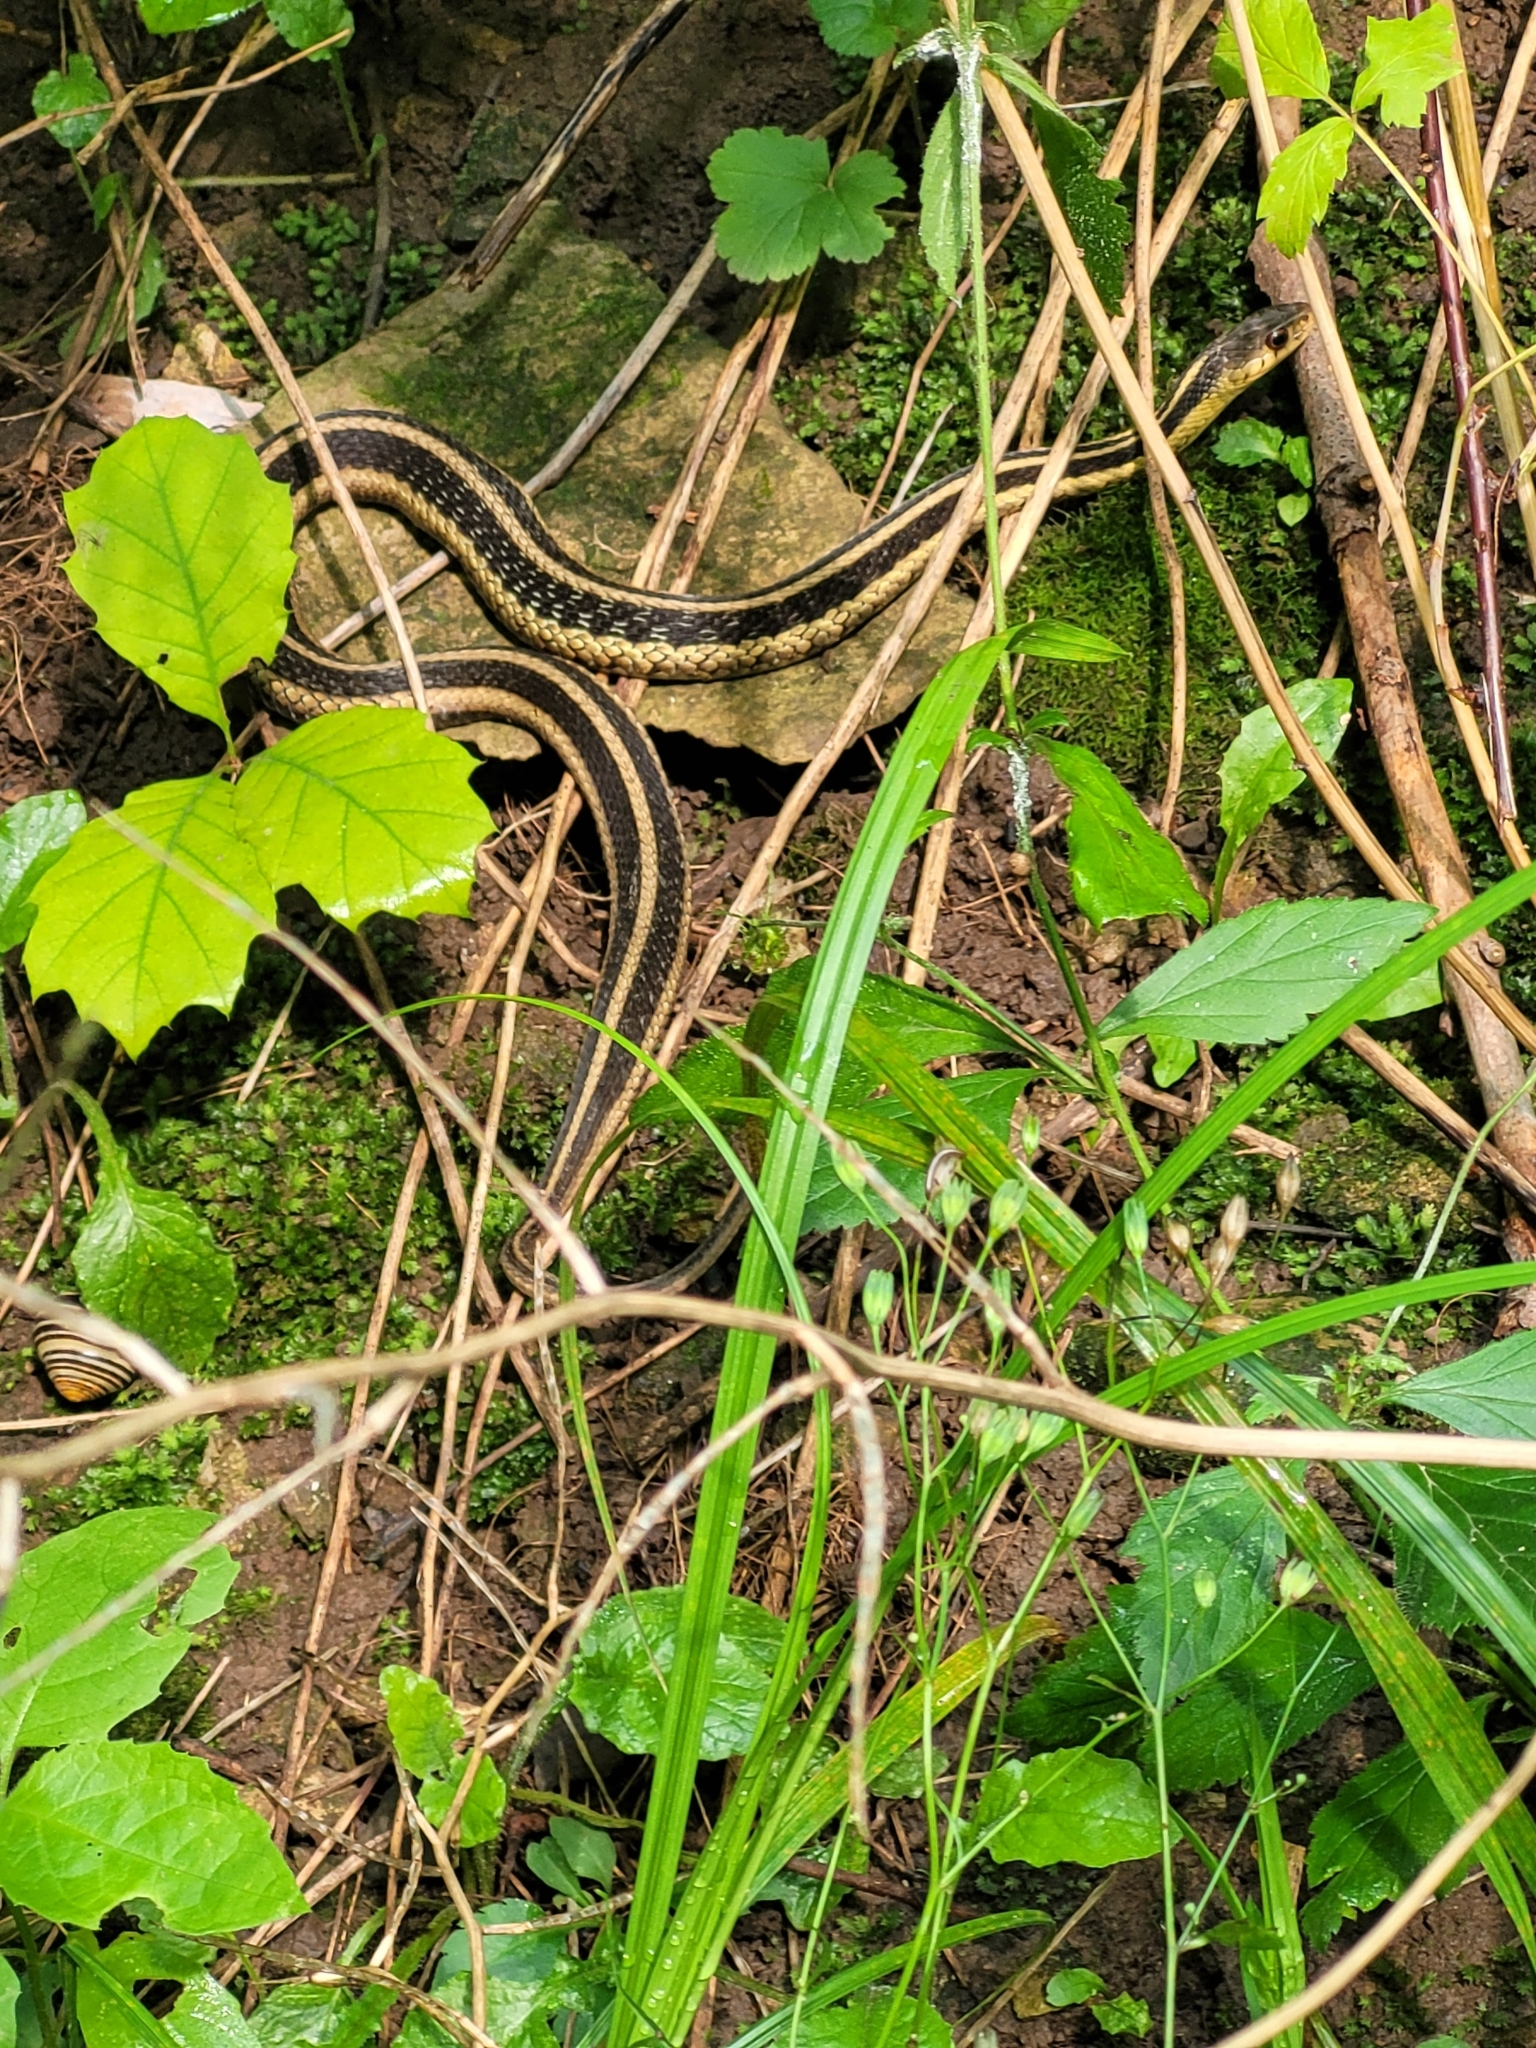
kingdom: Animalia
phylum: Chordata
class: Squamata
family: Colubridae
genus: Thamnophis
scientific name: Thamnophis sirtalis
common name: Common garter snake
